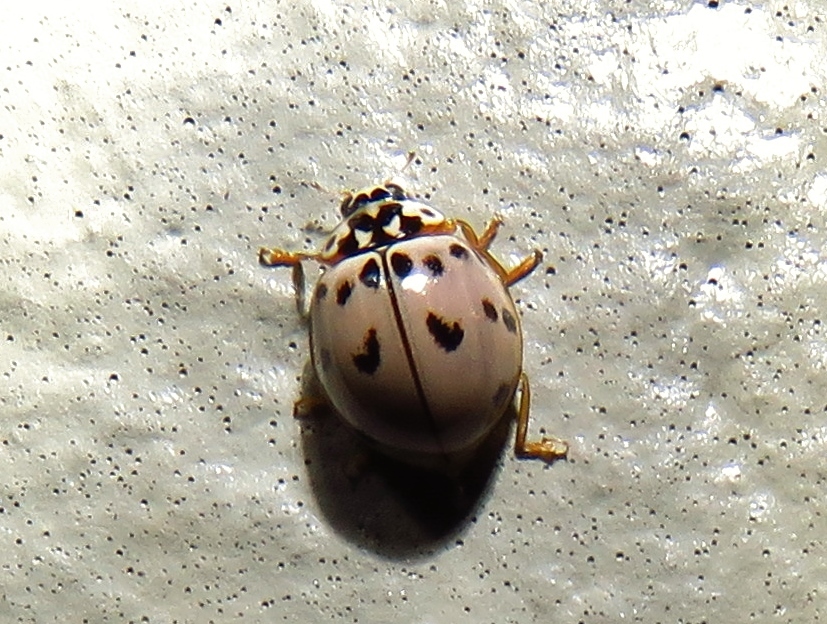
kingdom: Animalia
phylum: Arthropoda
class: Insecta
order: Coleoptera
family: Coccinellidae
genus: Olla
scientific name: Olla v-nigrum
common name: Ashy gray lady beetle
